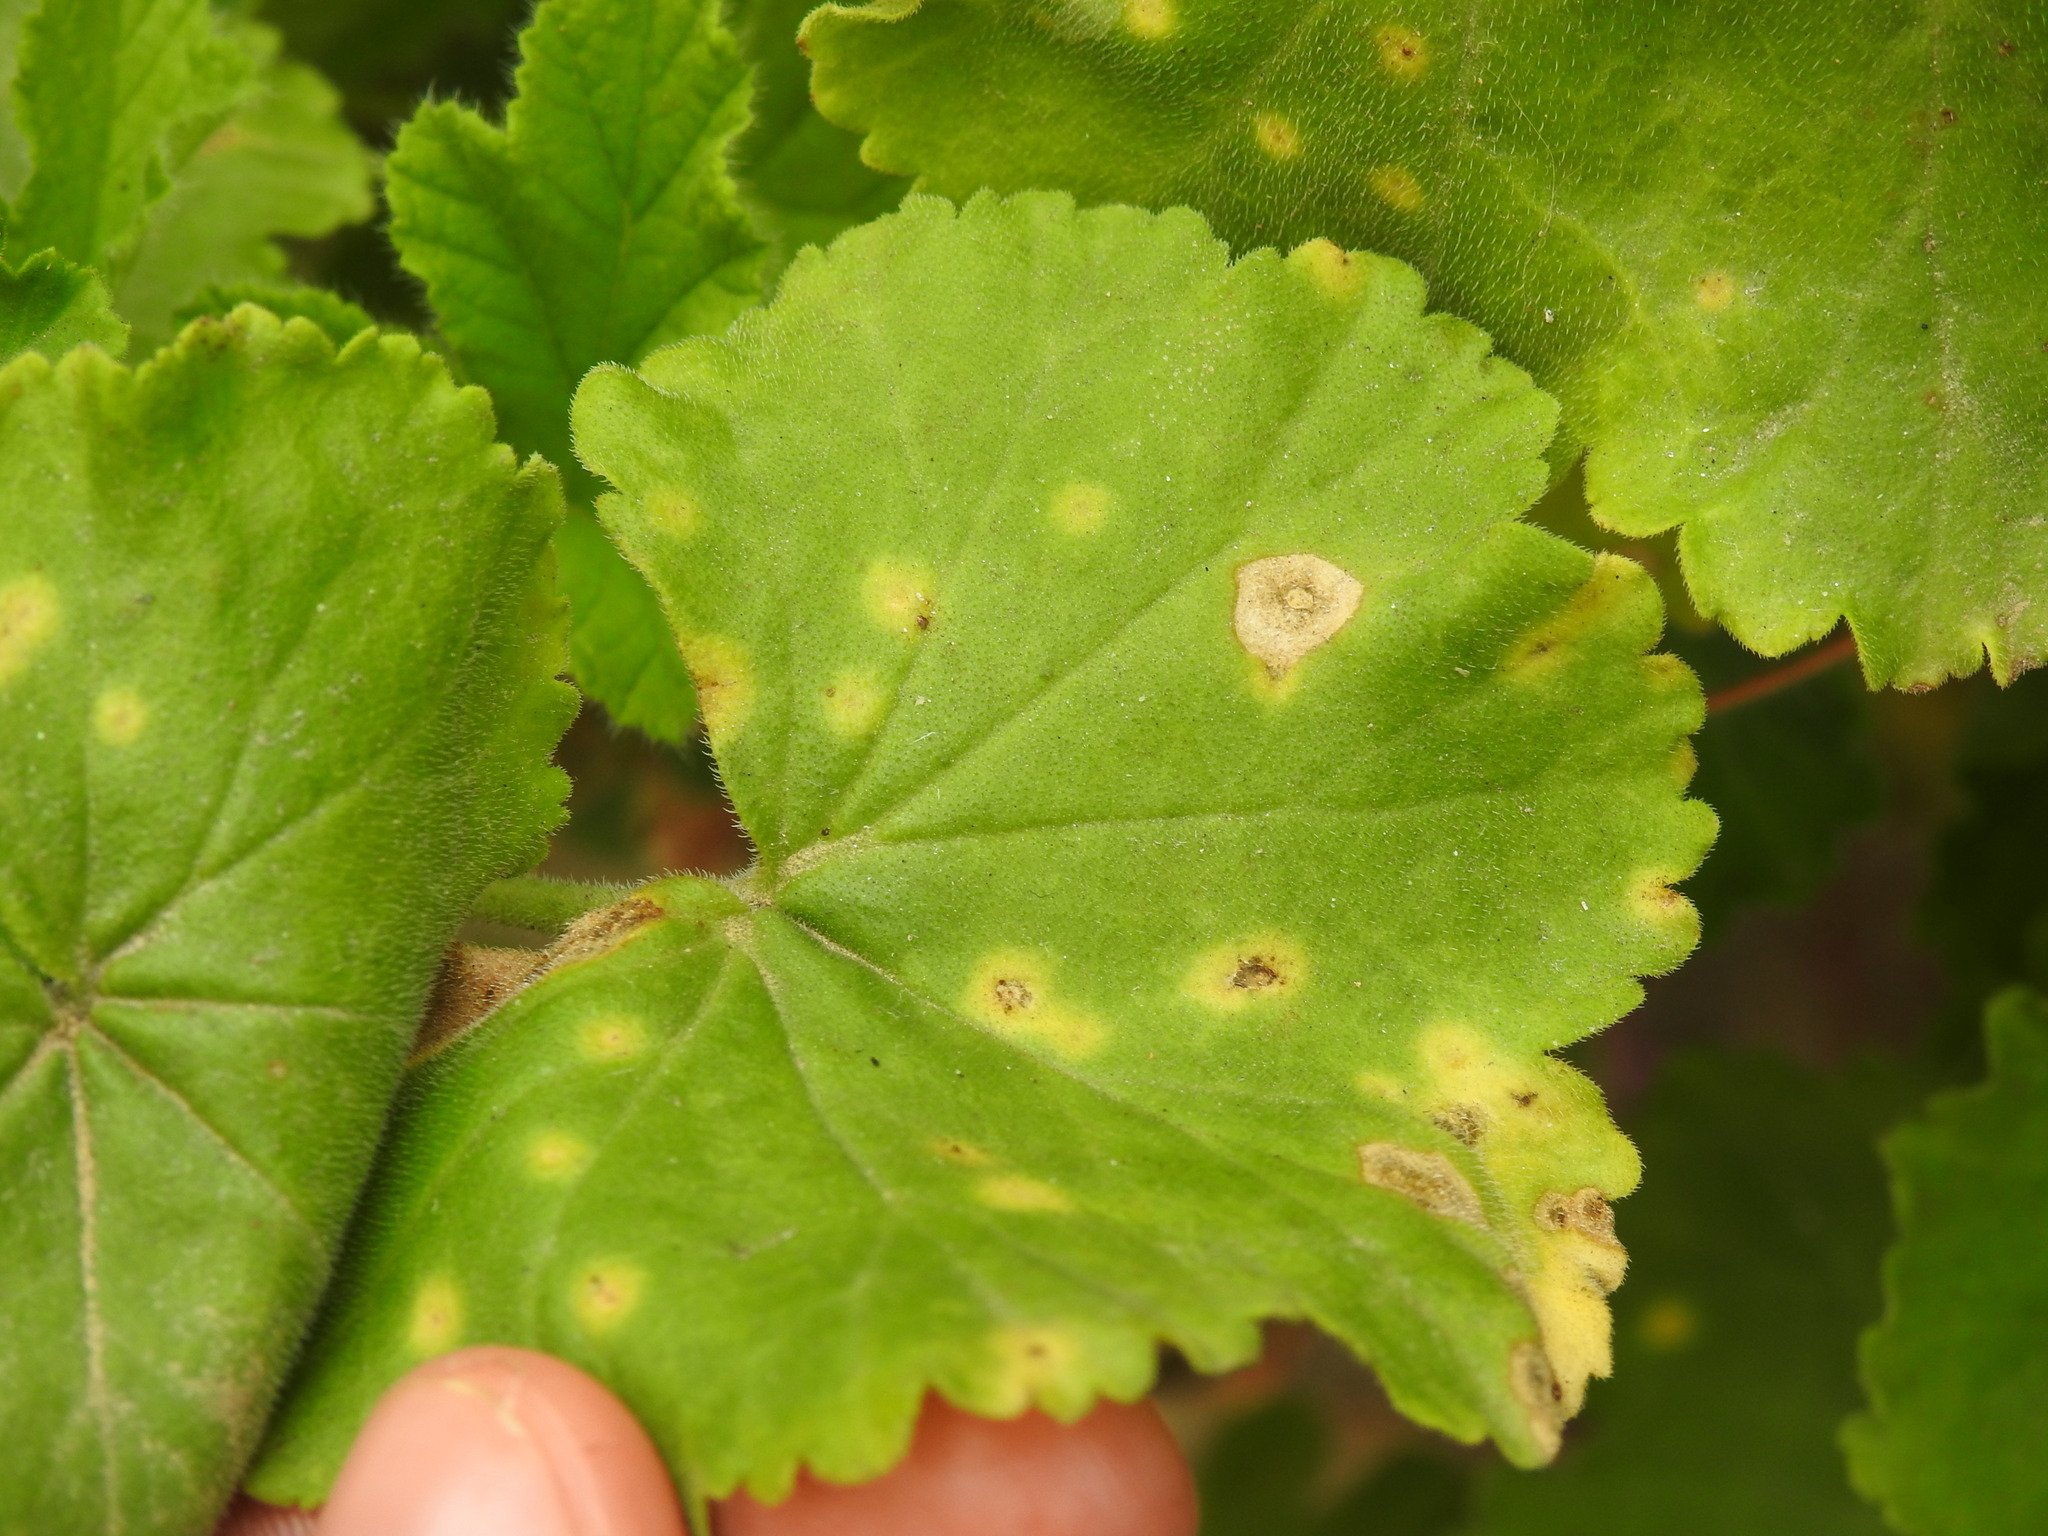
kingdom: Fungi
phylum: Basidiomycota
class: Pucciniomycetes
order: Pucciniales
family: Pucciniaceae
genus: Puccinia
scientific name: Puccinia pelargonii-zonalis
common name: Rust of pelargonium
